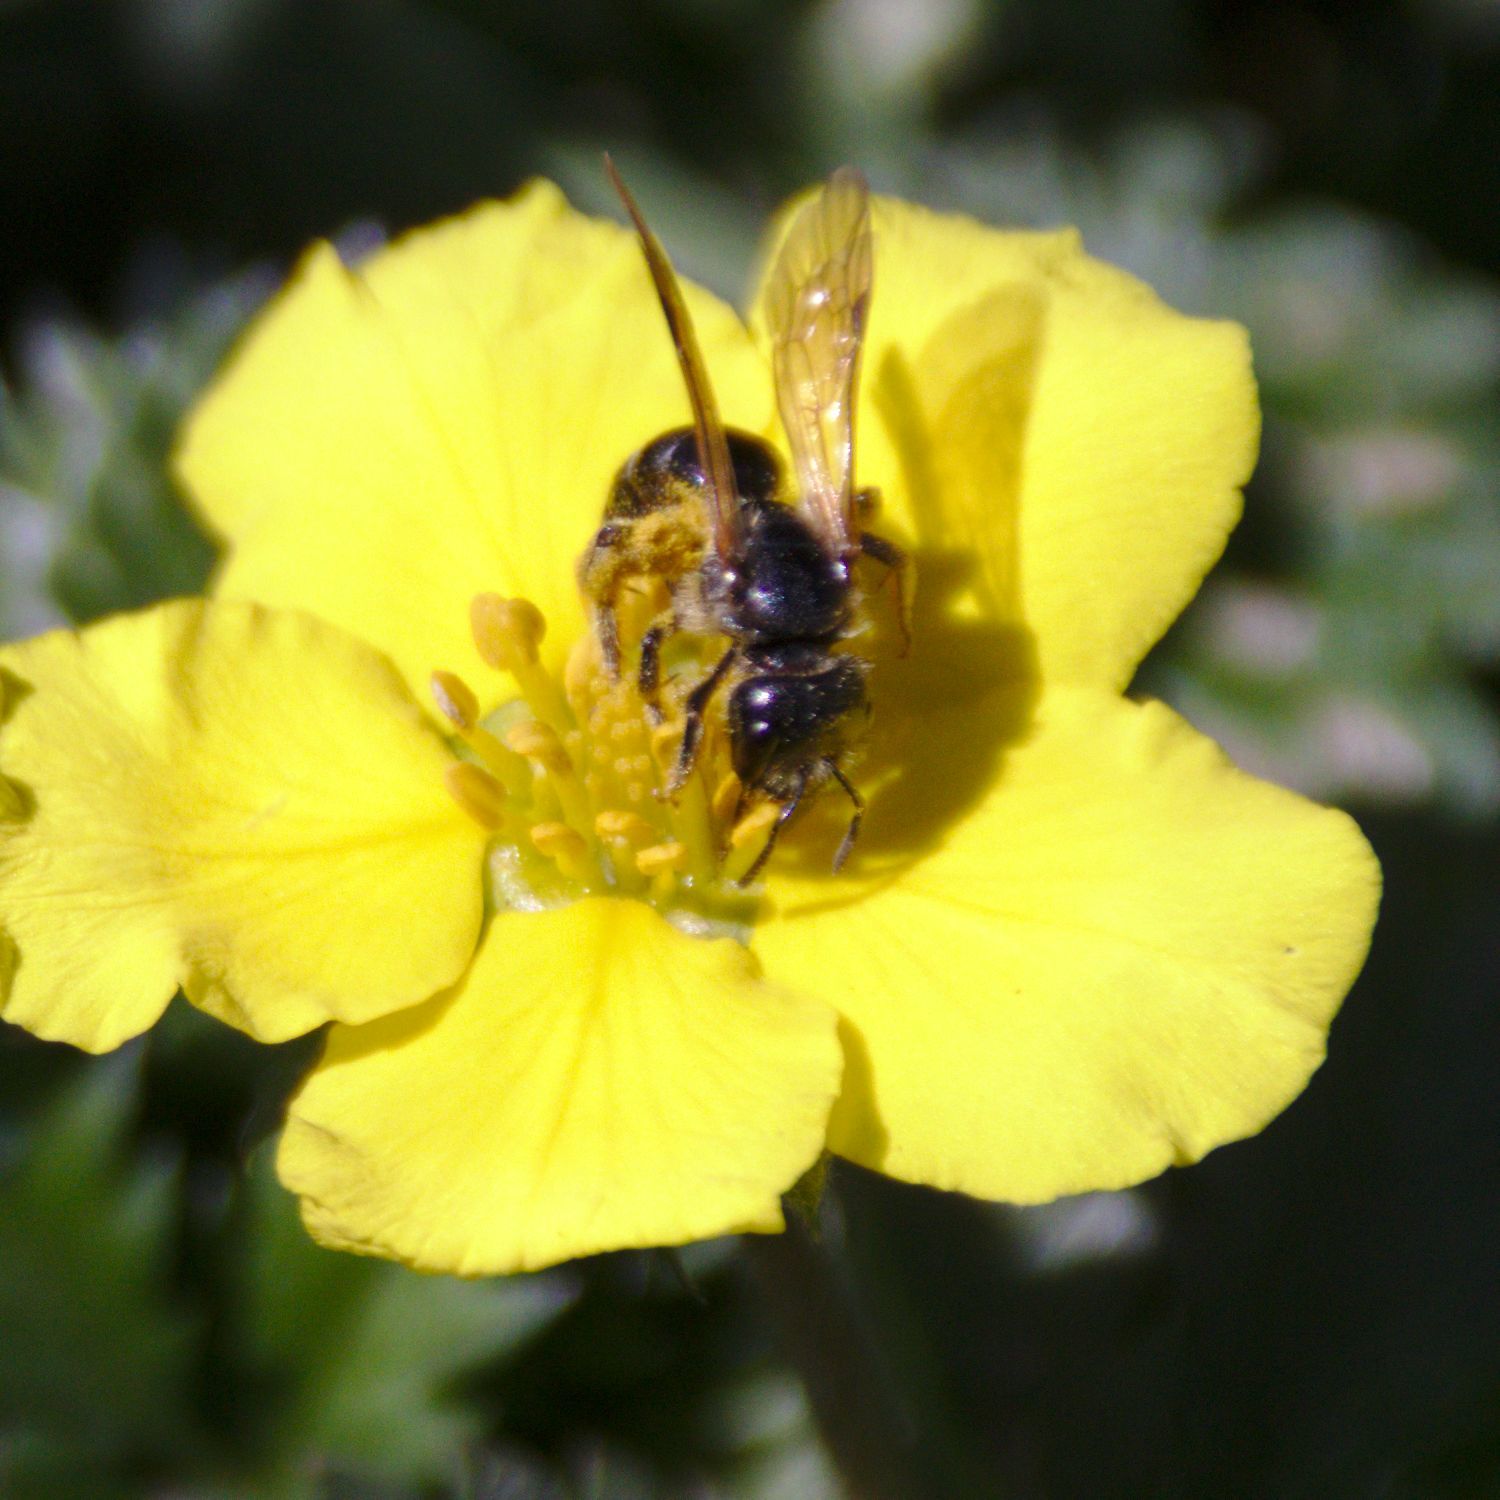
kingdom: Animalia
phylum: Arthropoda
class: Insecta
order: Hymenoptera
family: Halictidae
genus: Halictus
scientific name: Halictus
